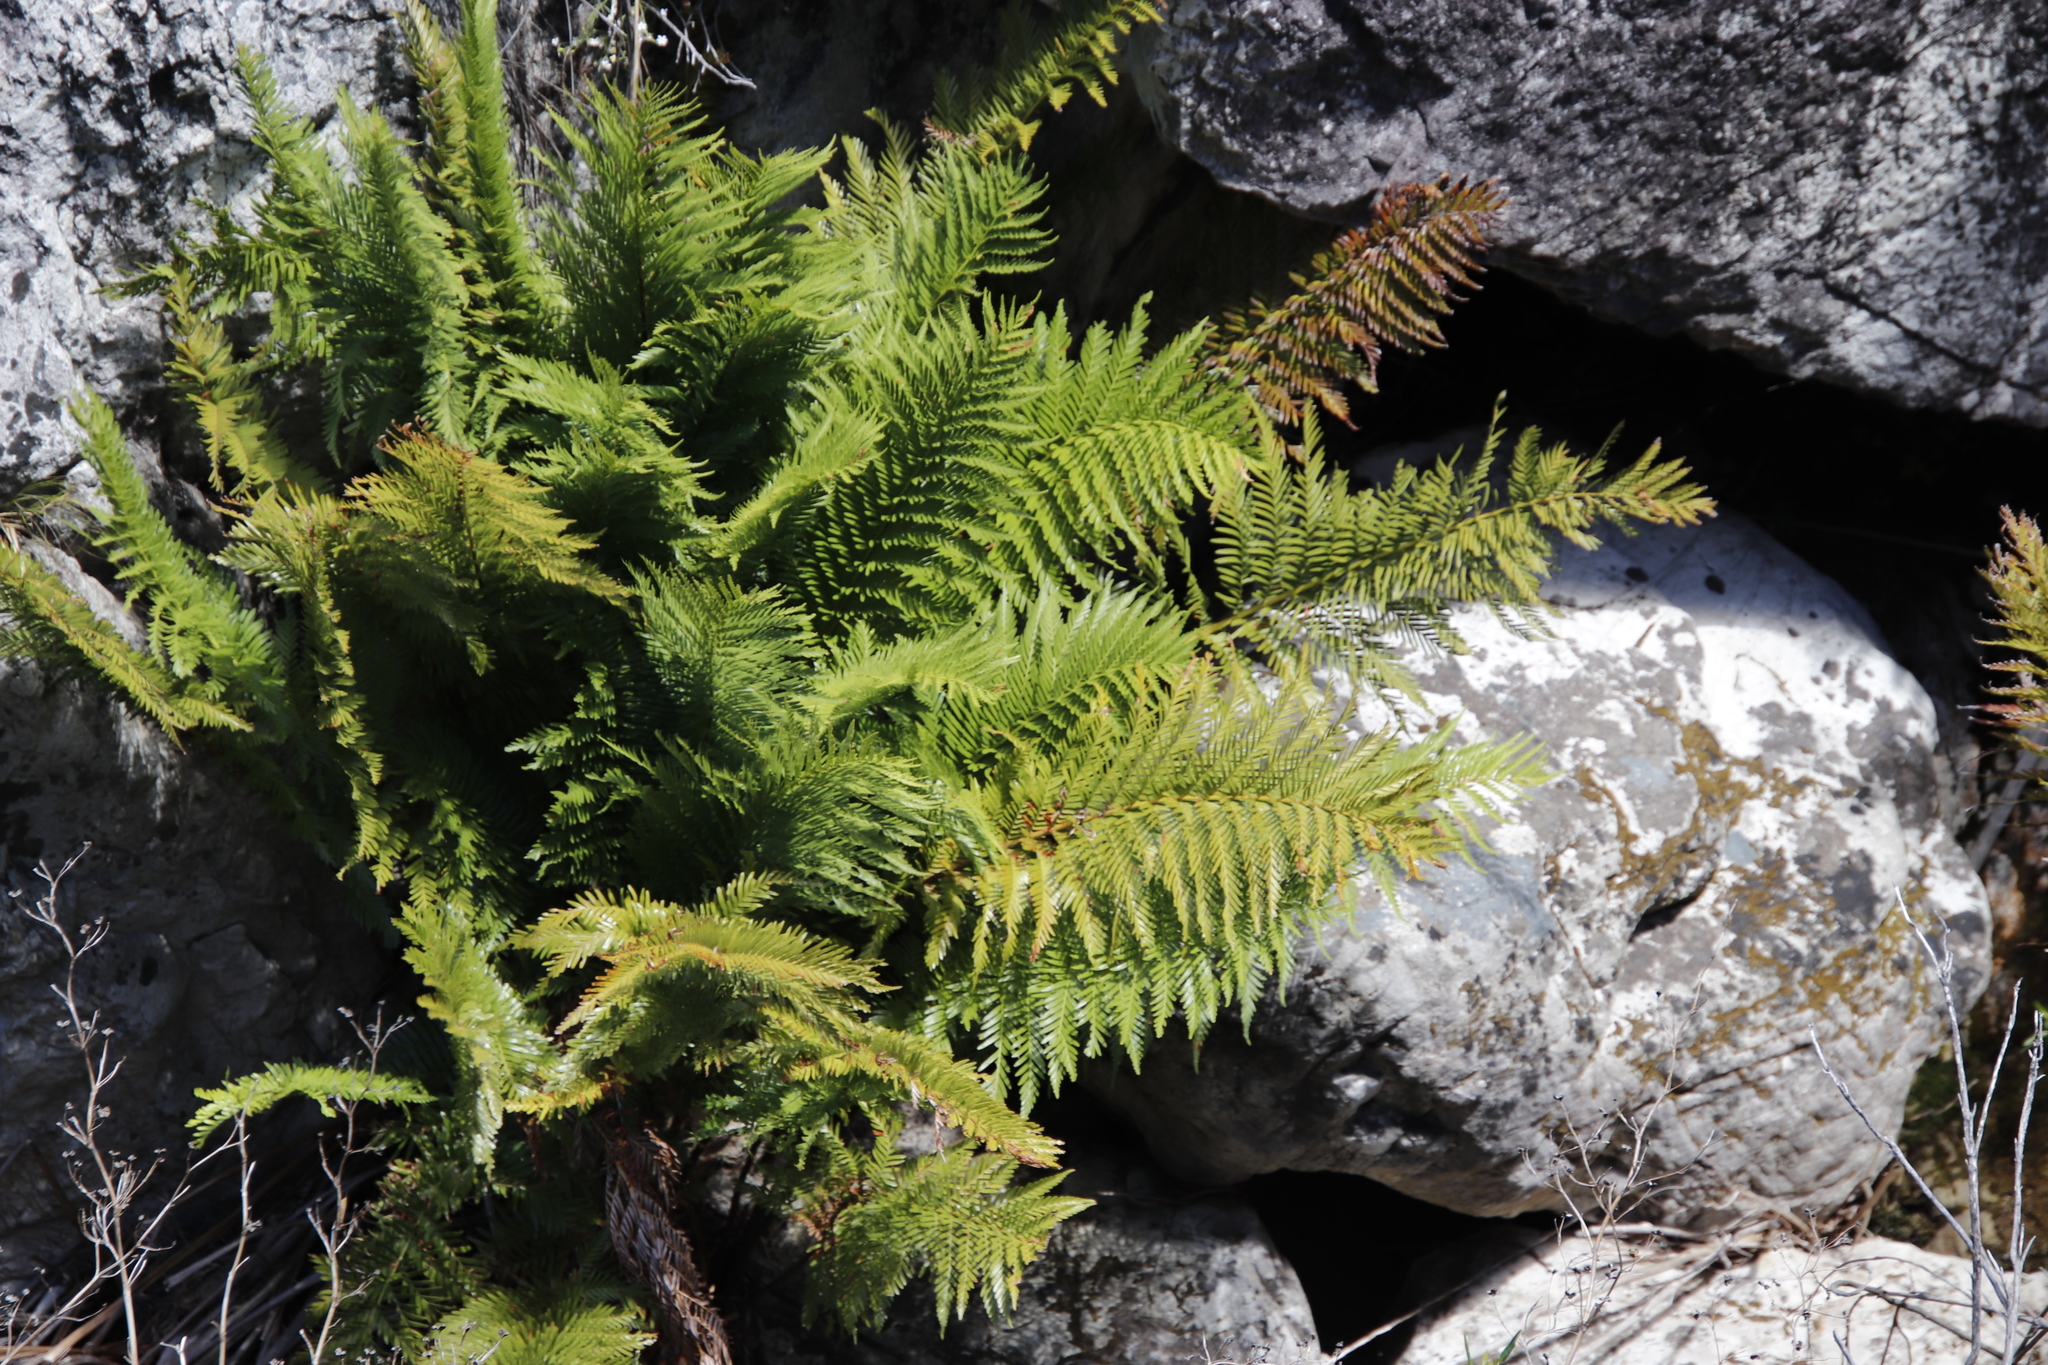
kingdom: Plantae
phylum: Tracheophyta
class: Polypodiopsida
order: Osmundales
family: Osmundaceae
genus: Todea
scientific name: Todea barbara
